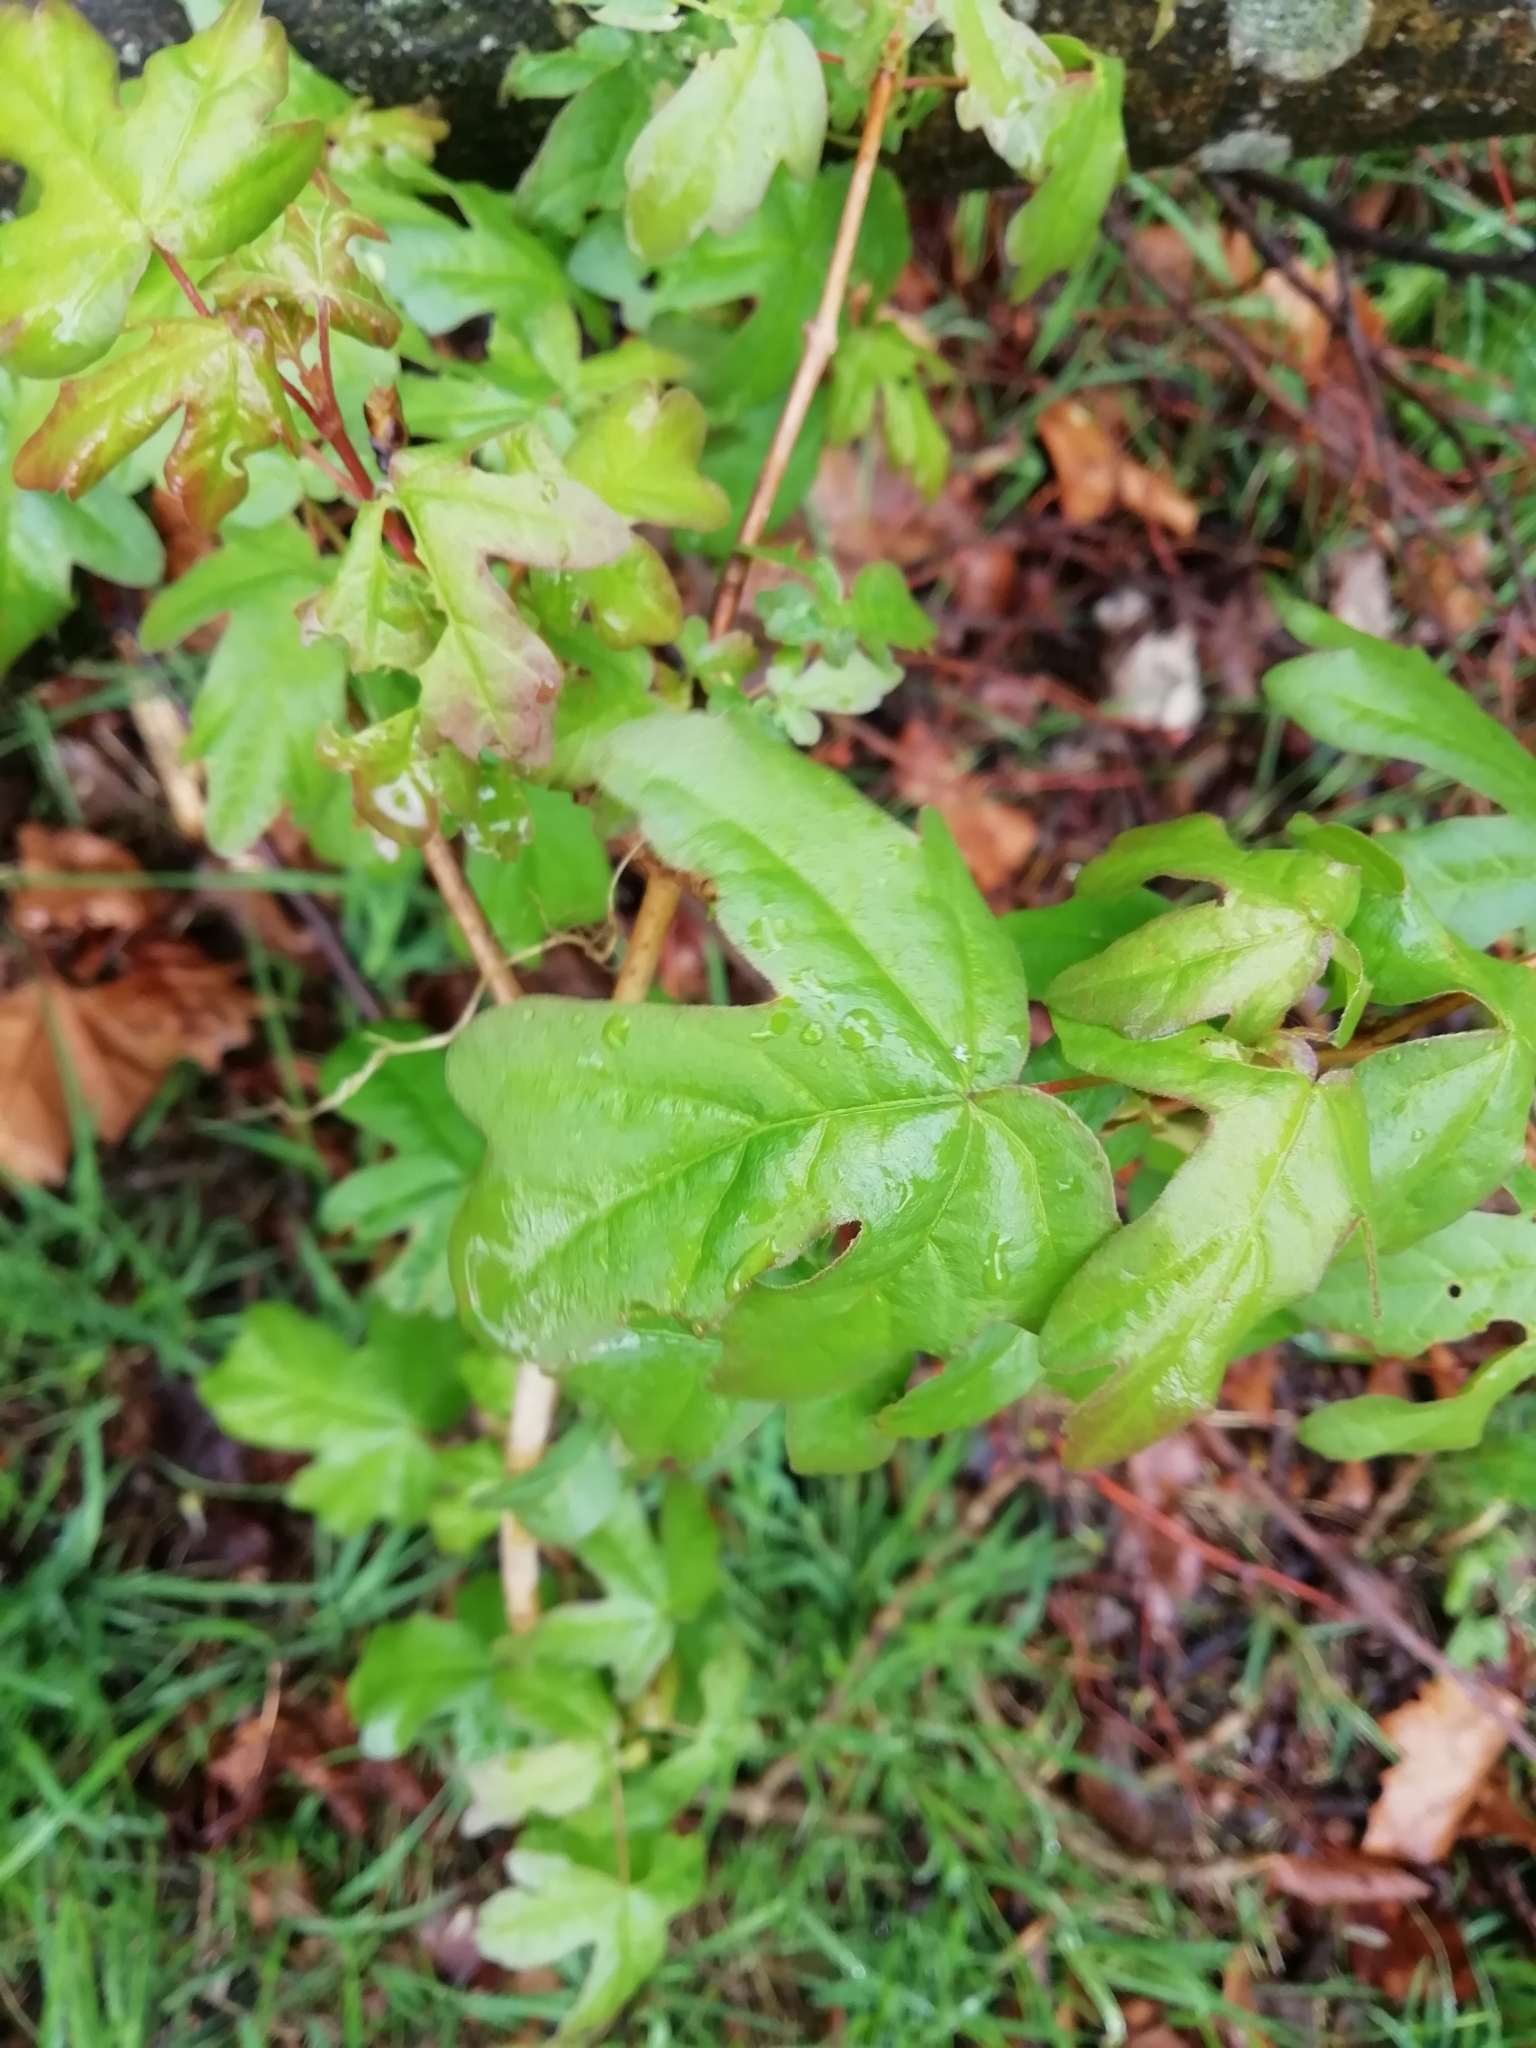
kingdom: Plantae
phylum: Tracheophyta
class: Magnoliopsida
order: Sapindales
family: Sapindaceae
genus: Acer
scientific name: Acer campestre
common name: Field maple
